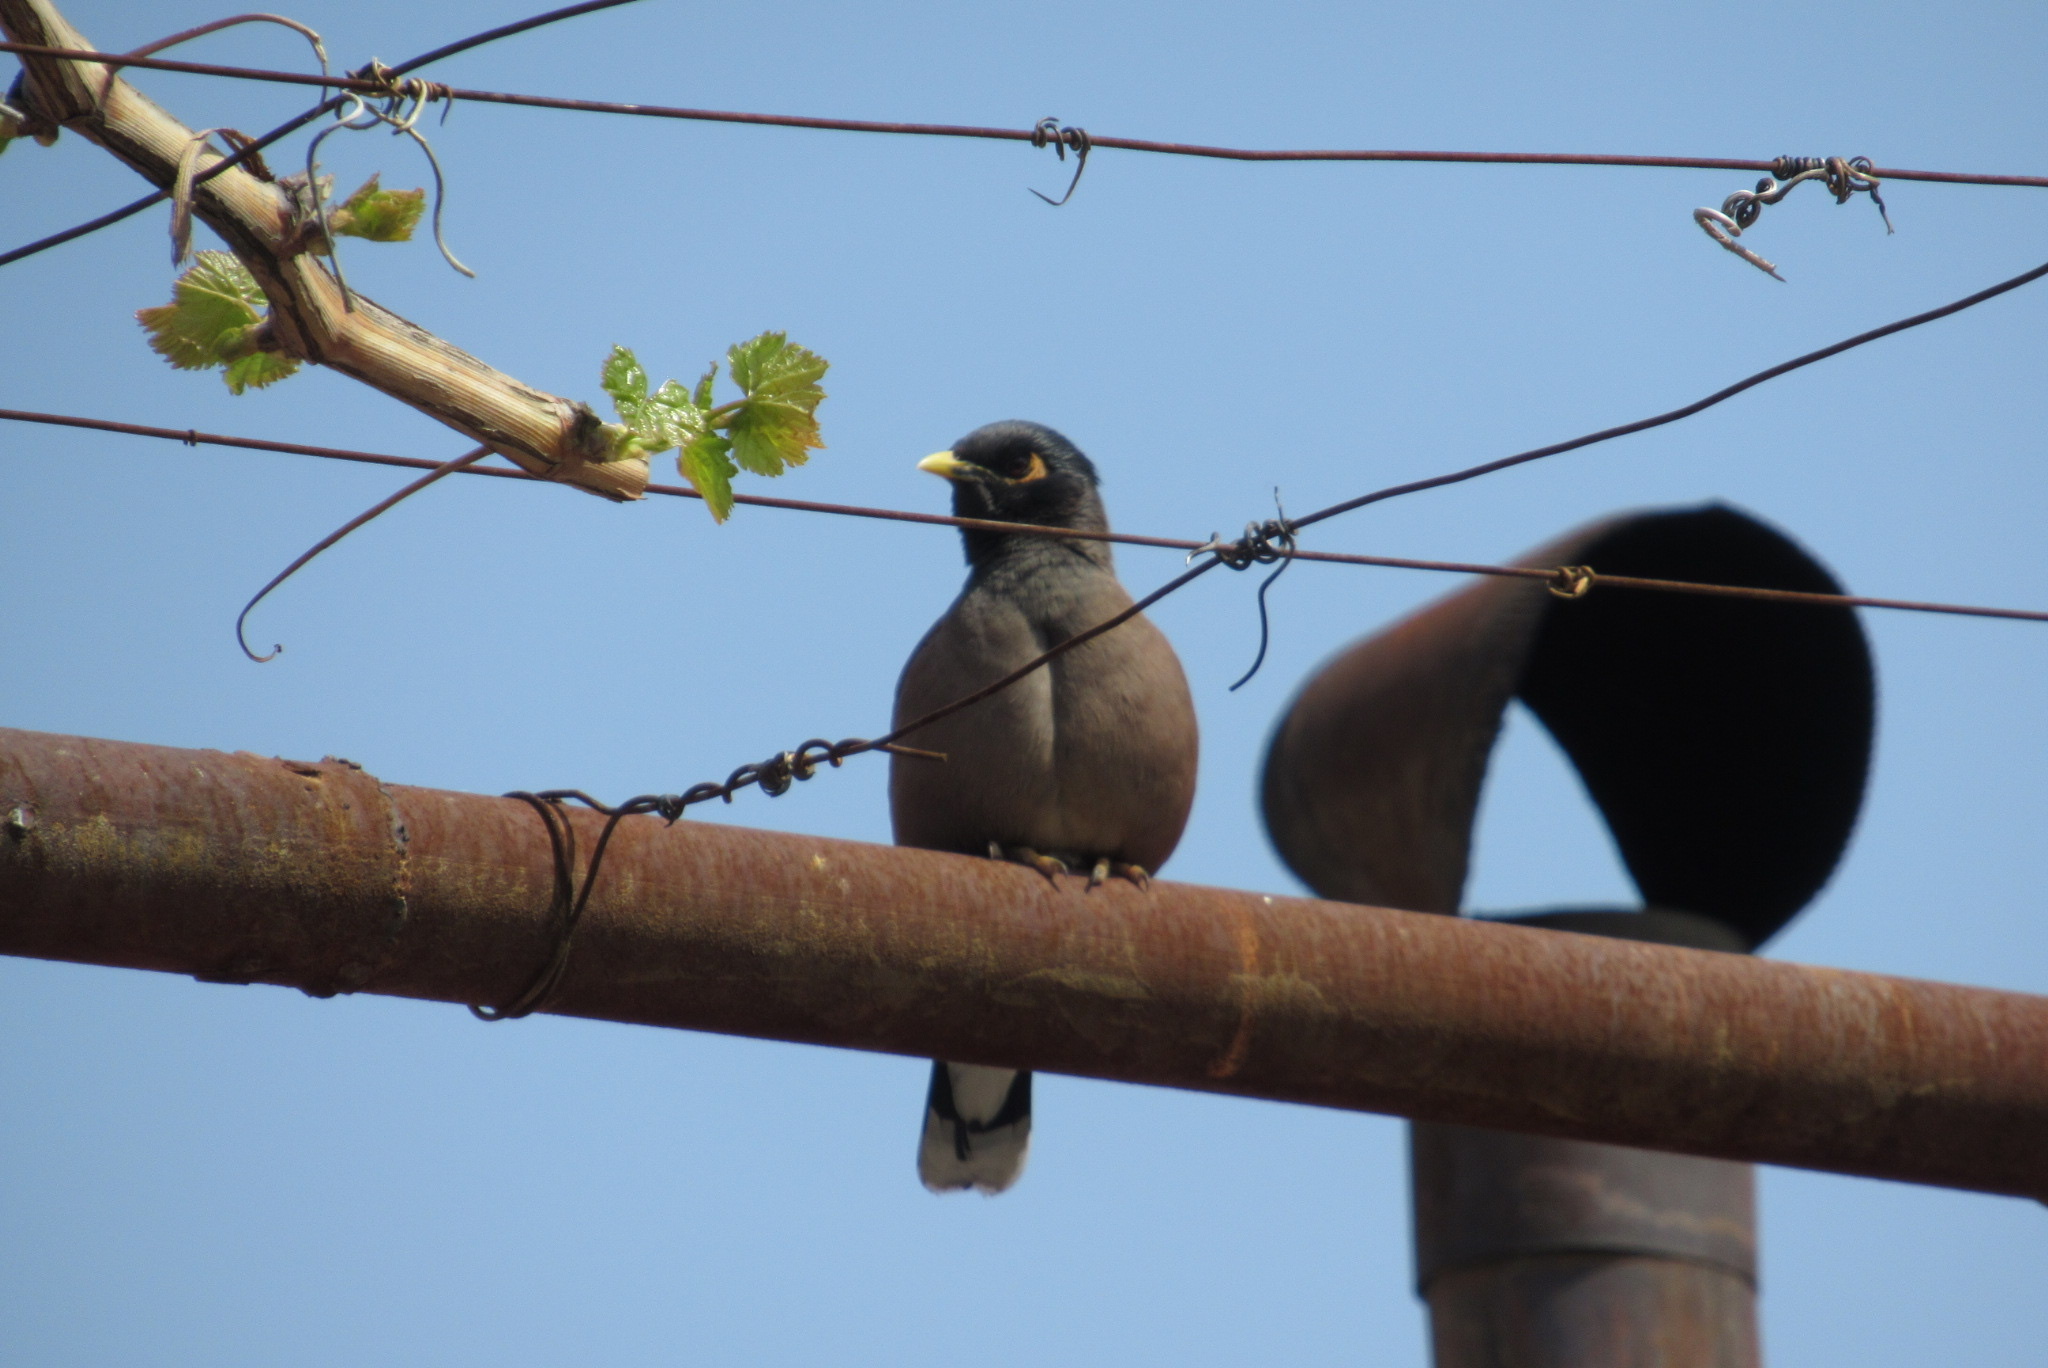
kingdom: Animalia
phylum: Chordata
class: Aves
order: Passeriformes
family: Sturnidae
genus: Acridotheres
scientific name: Acridotheres tristis
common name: Common myna
